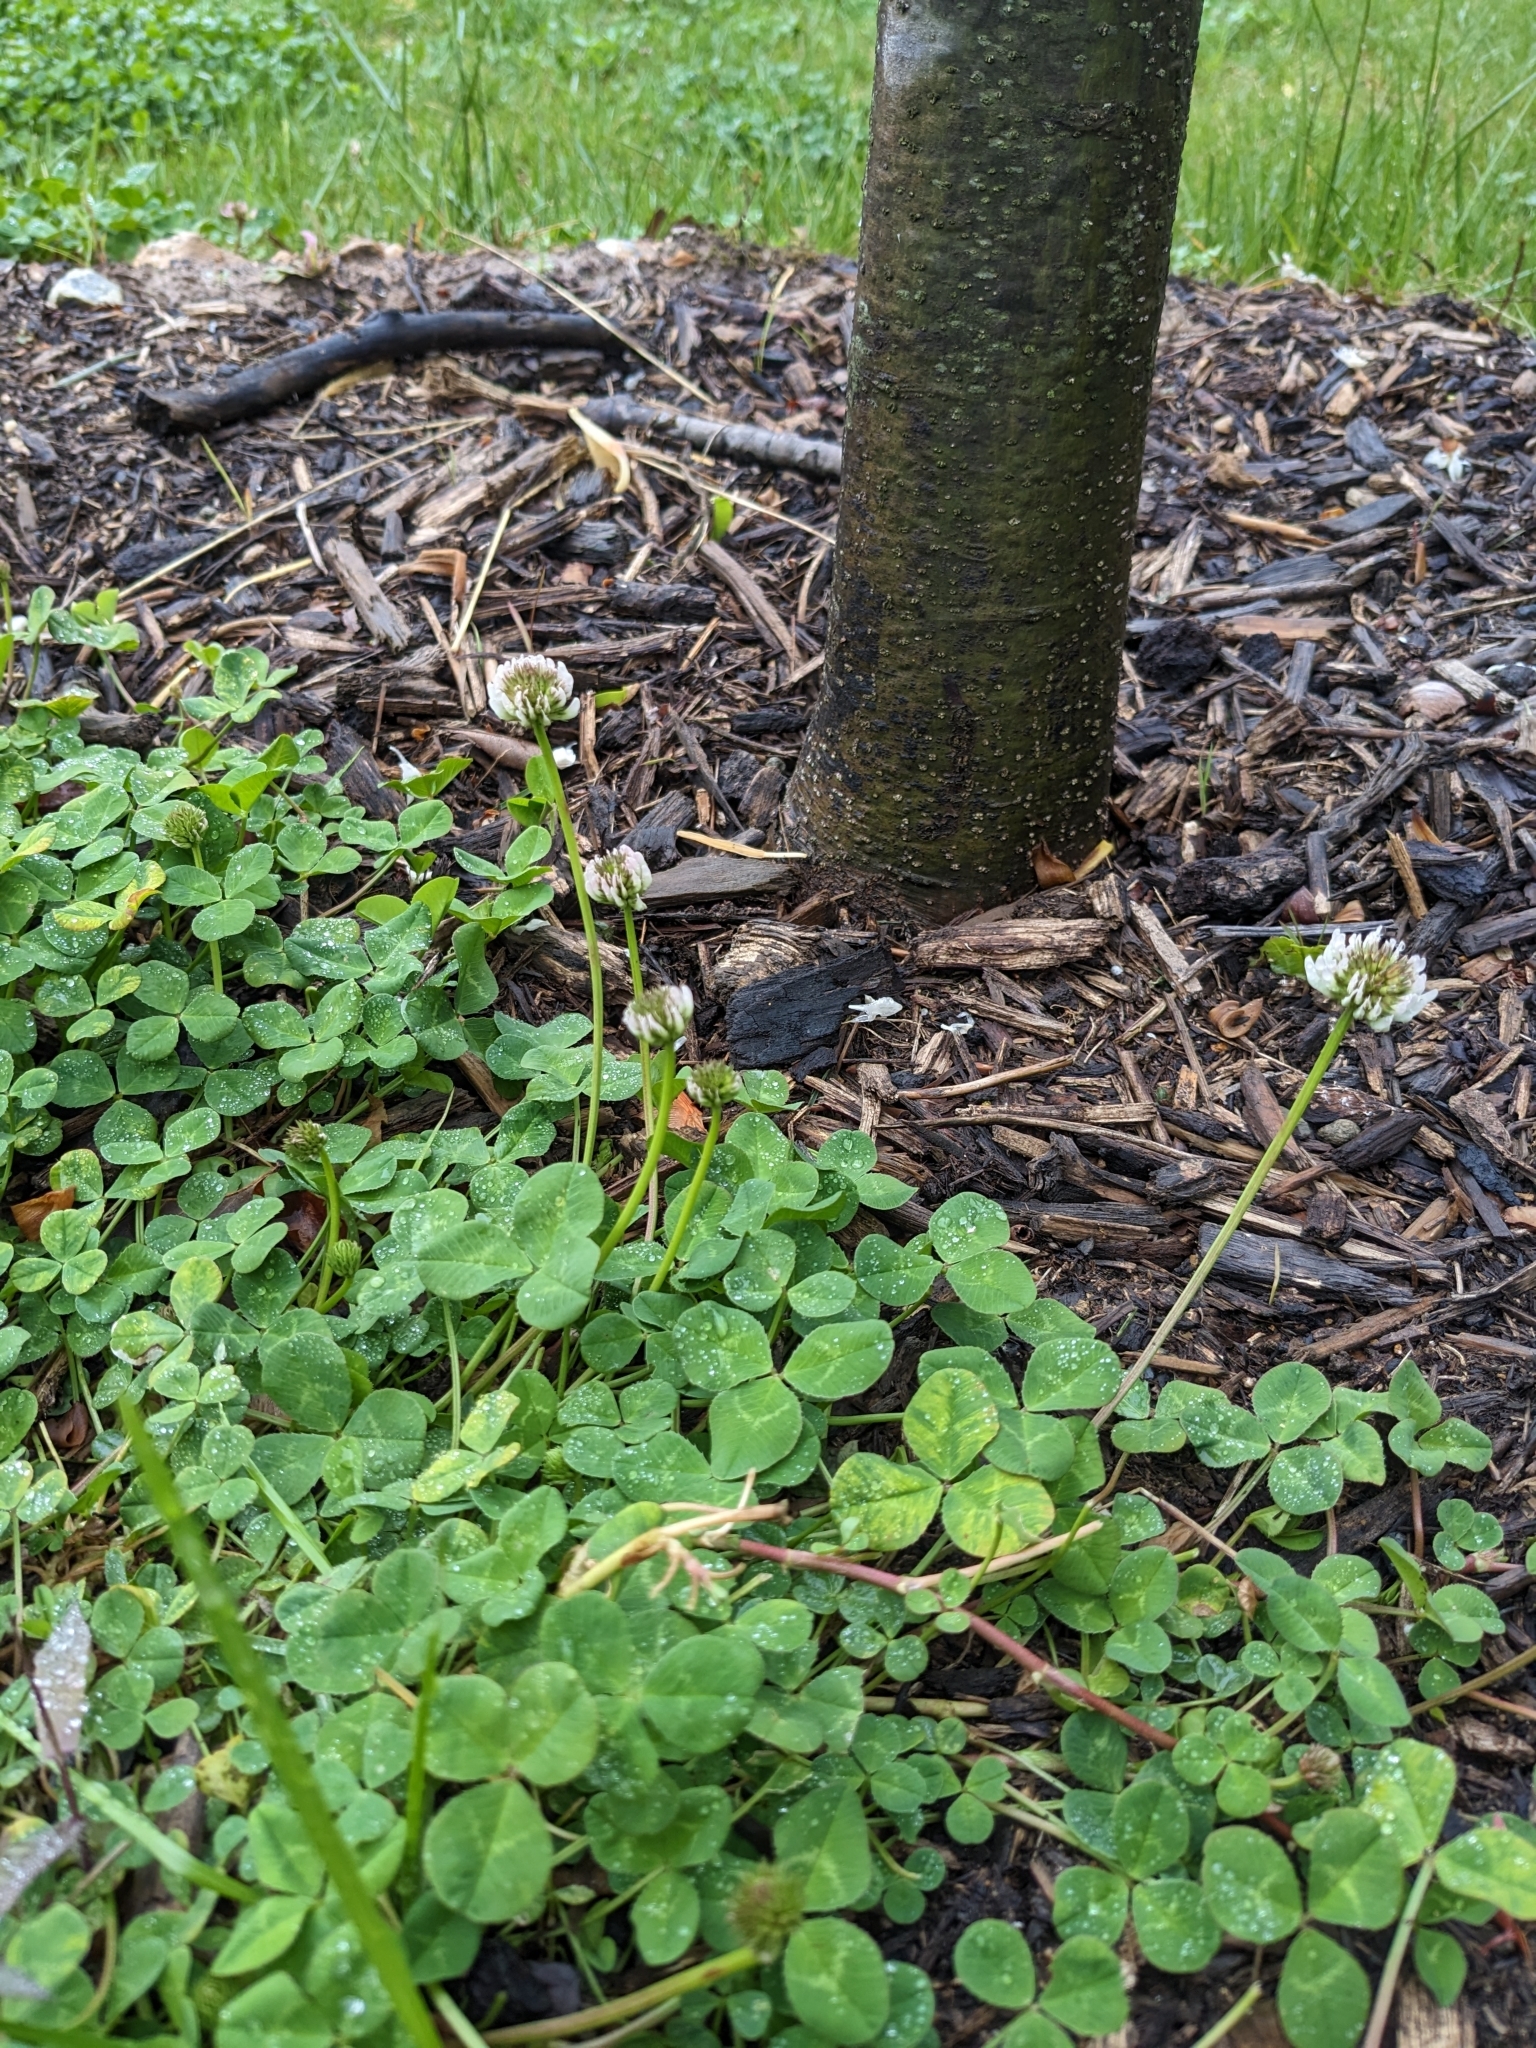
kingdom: Plantae
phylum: Tracheophyta
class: Magnoliopsida
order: Fabales
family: Fabaceae
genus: Trifolium
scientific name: Trifolium repens
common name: White clover
